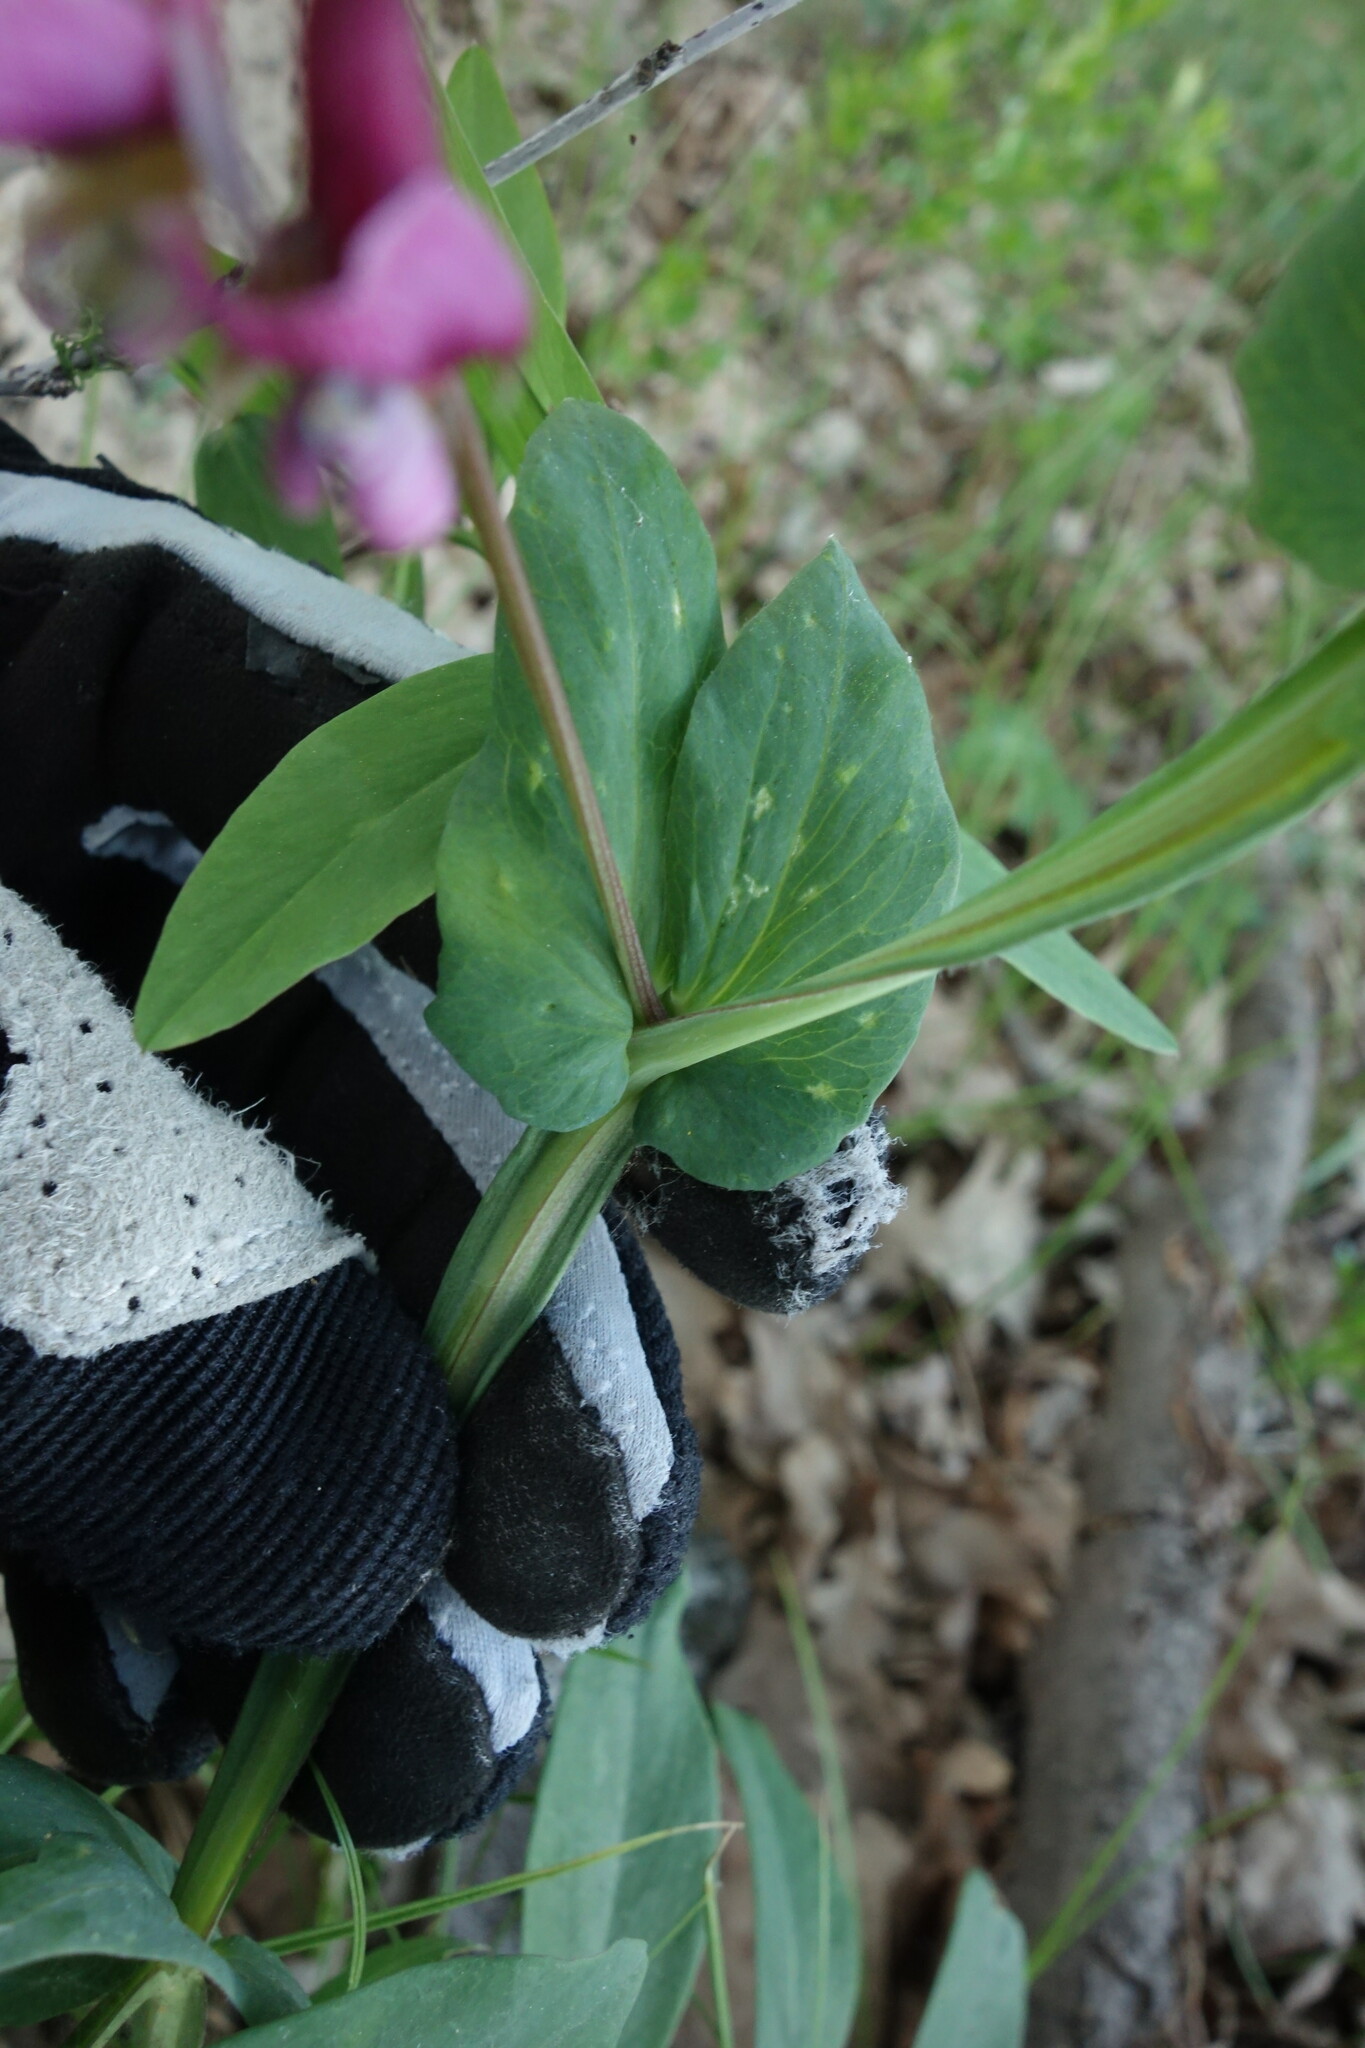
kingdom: Plantae
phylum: Tracheophyta
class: Magnoliopsida
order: Fabales
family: Fabaceae
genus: Lathyrus
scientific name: Lathyrus pisiformis
